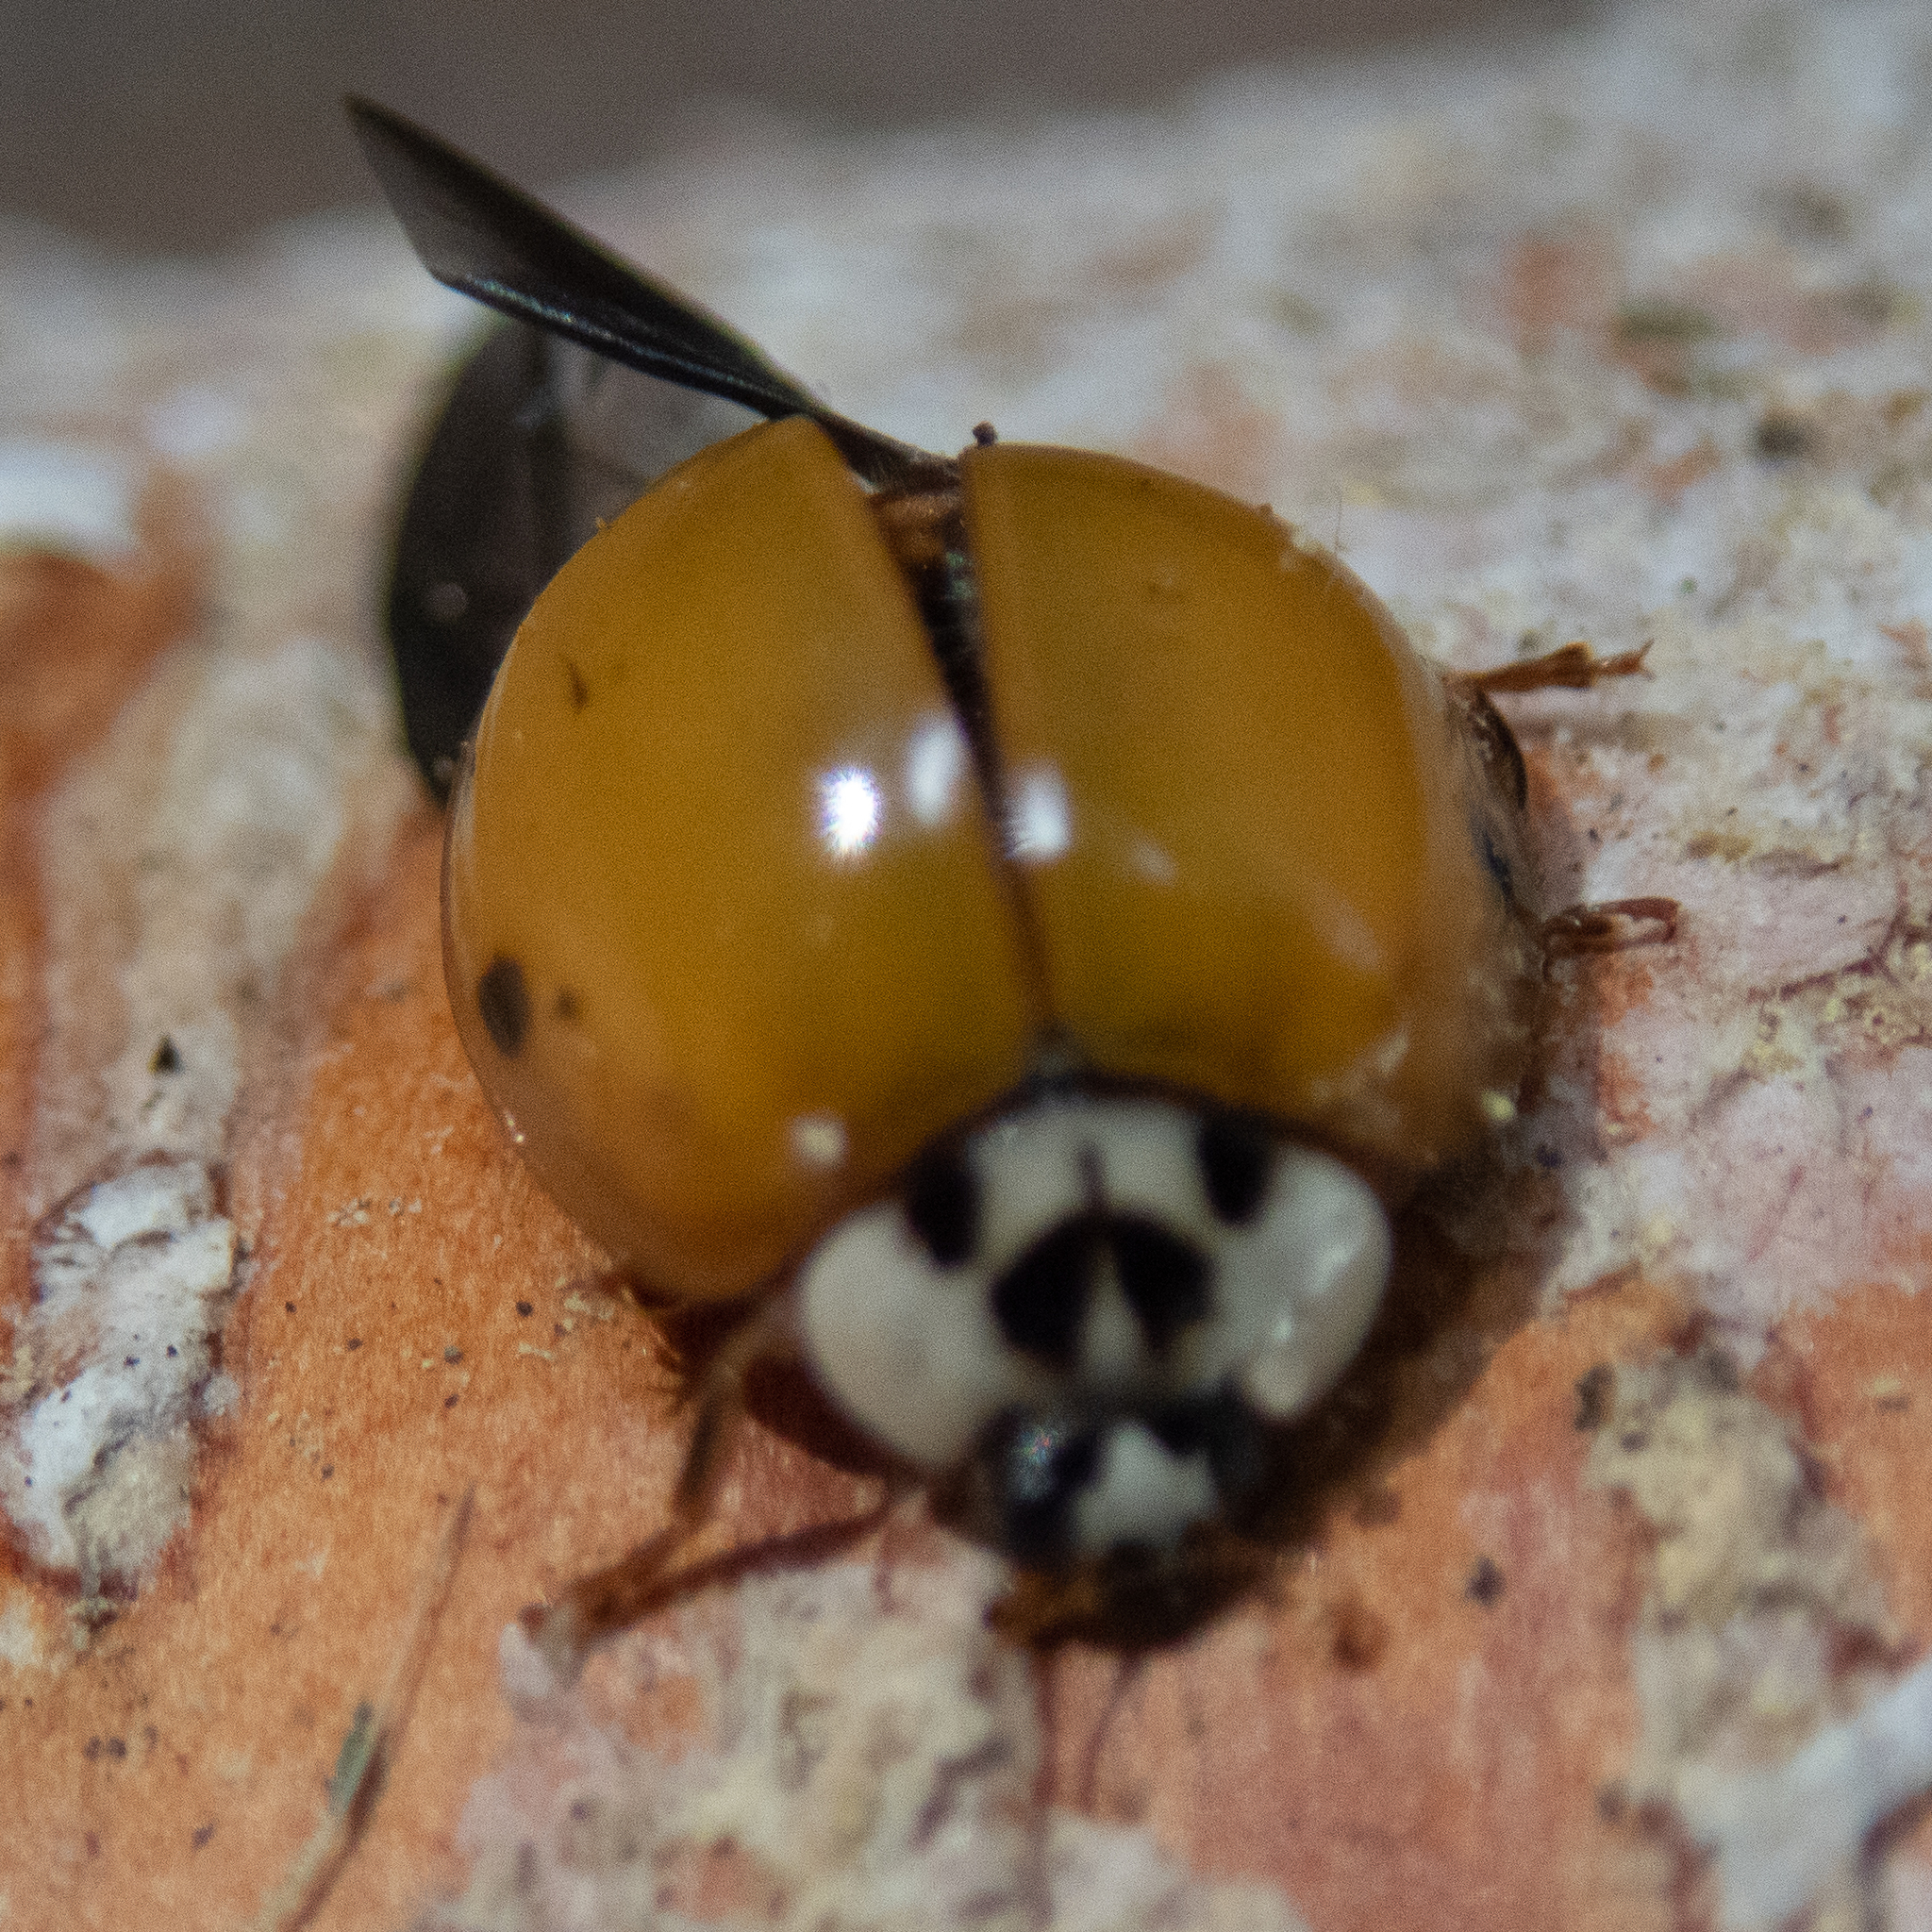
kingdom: Animalia
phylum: Arthropoda
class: Insecta
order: Coleoptera
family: Coccinellidae
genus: Harmonia
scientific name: Harmonia axyridis
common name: Harlequin ladybird
